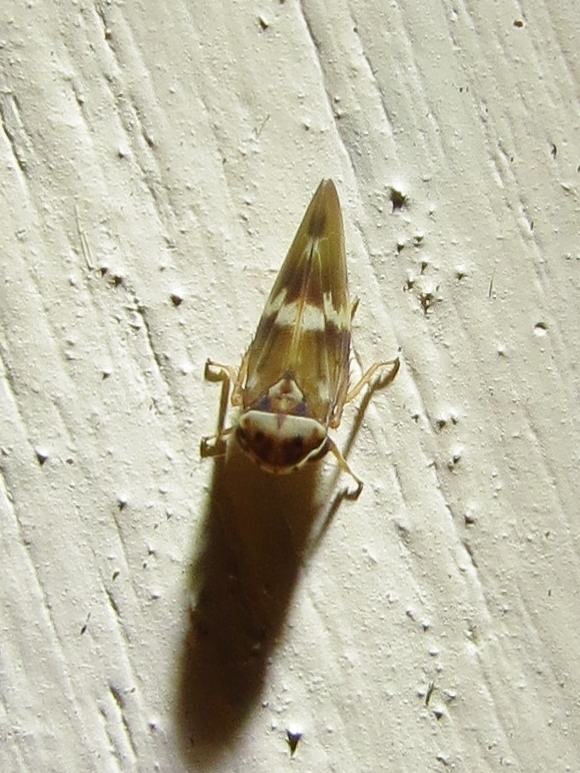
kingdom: Animalia
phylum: Arthropoda
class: Insecta
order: Hemiptera
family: Cicadellidae
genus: Agalliopsis
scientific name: Agalliopsis cervina
